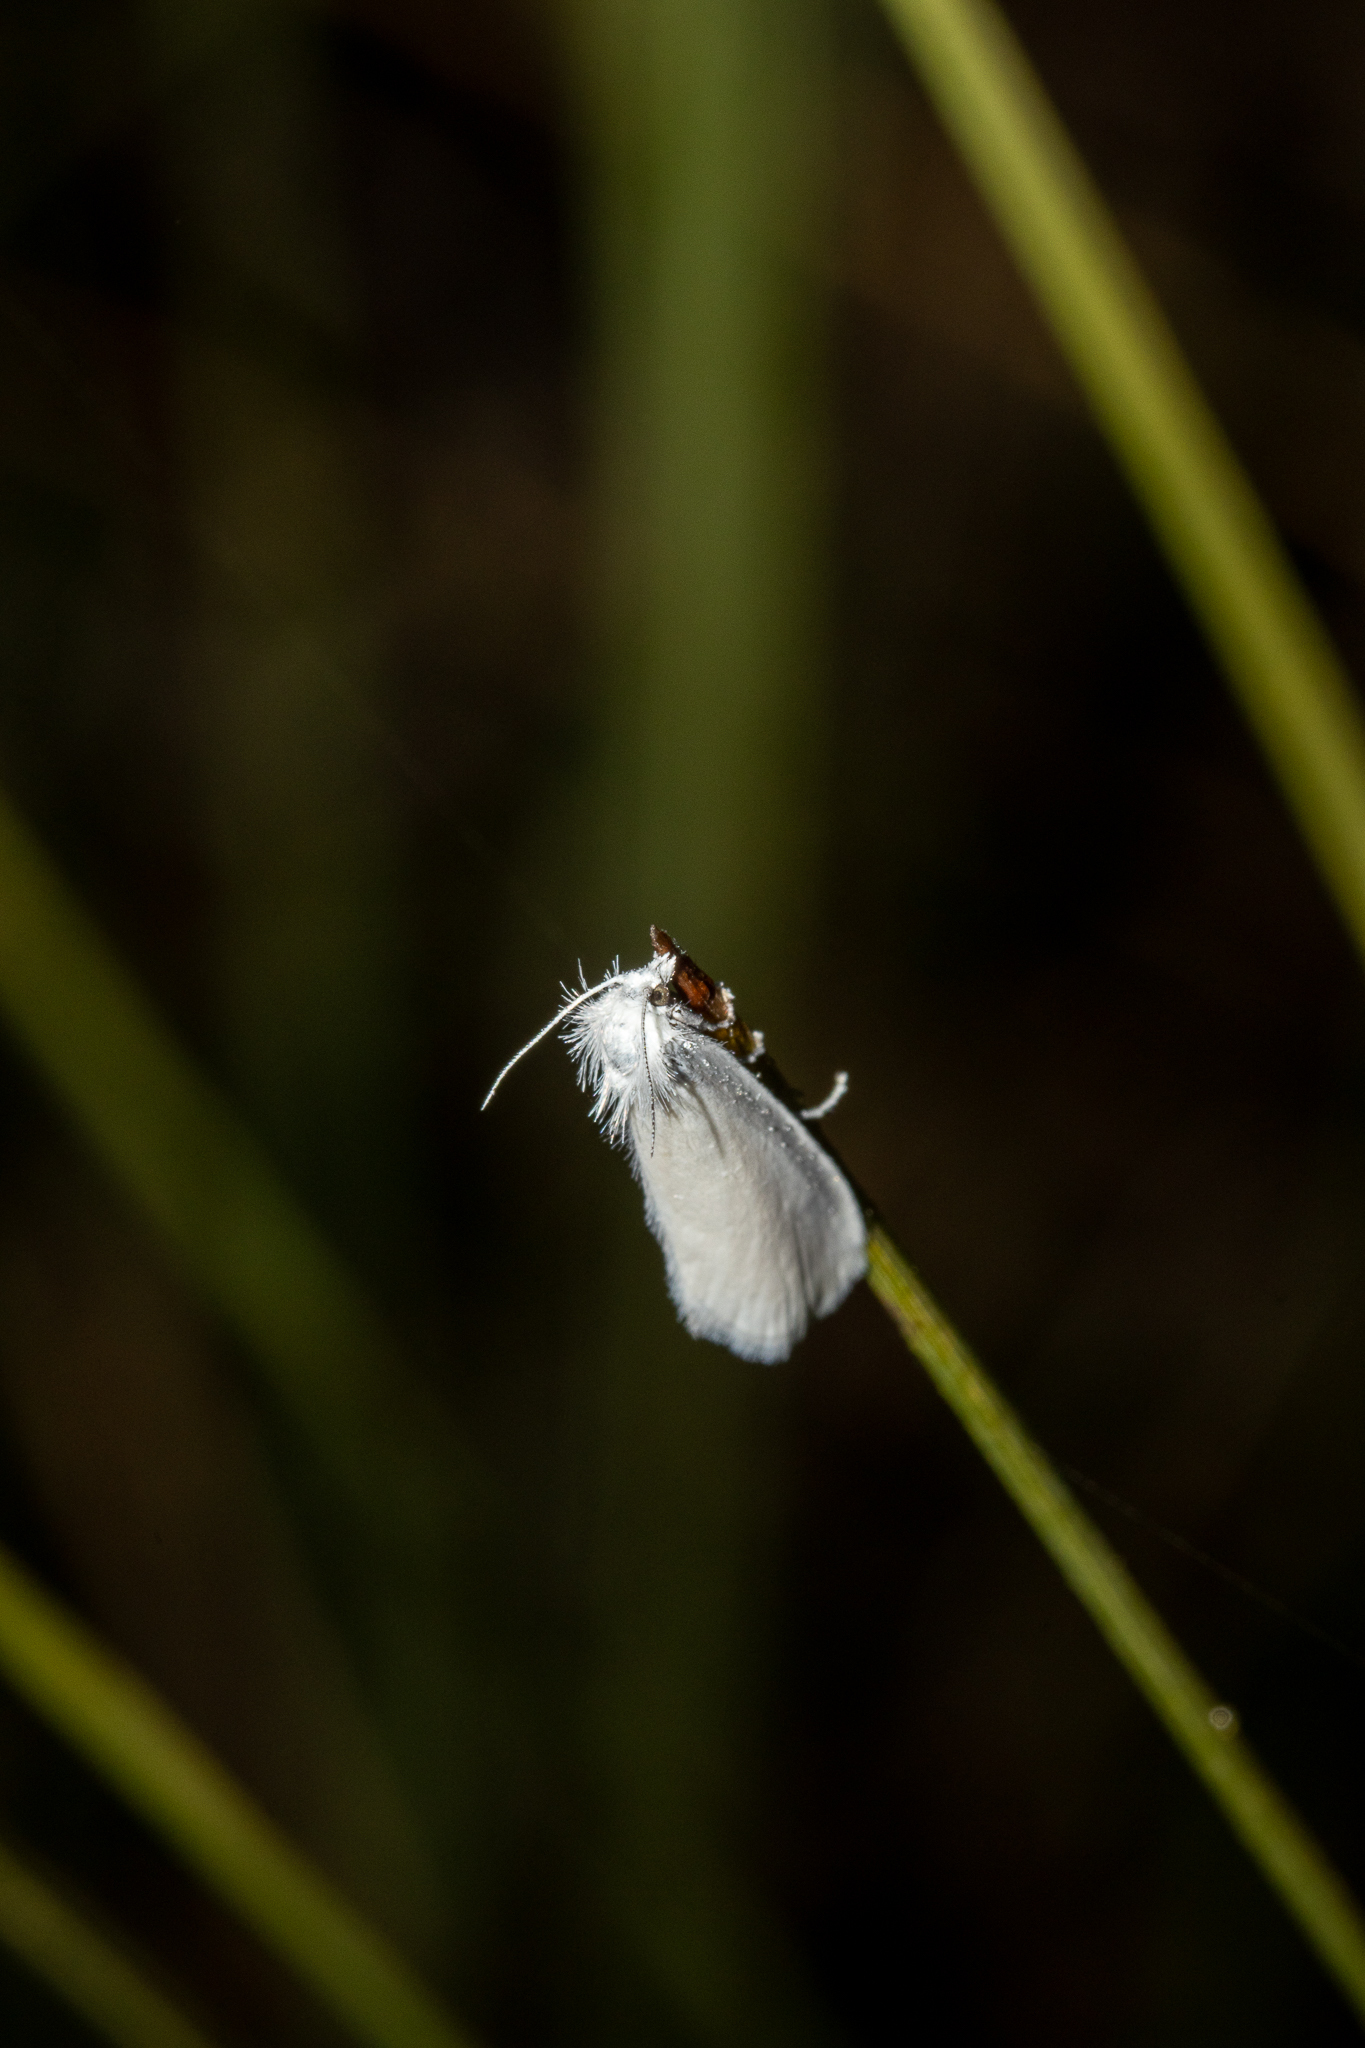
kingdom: Animalia
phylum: Arthropoda
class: Insecta
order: Lepidoptera
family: Crambidae
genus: Tipanaea
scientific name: Tipanaea patulella
